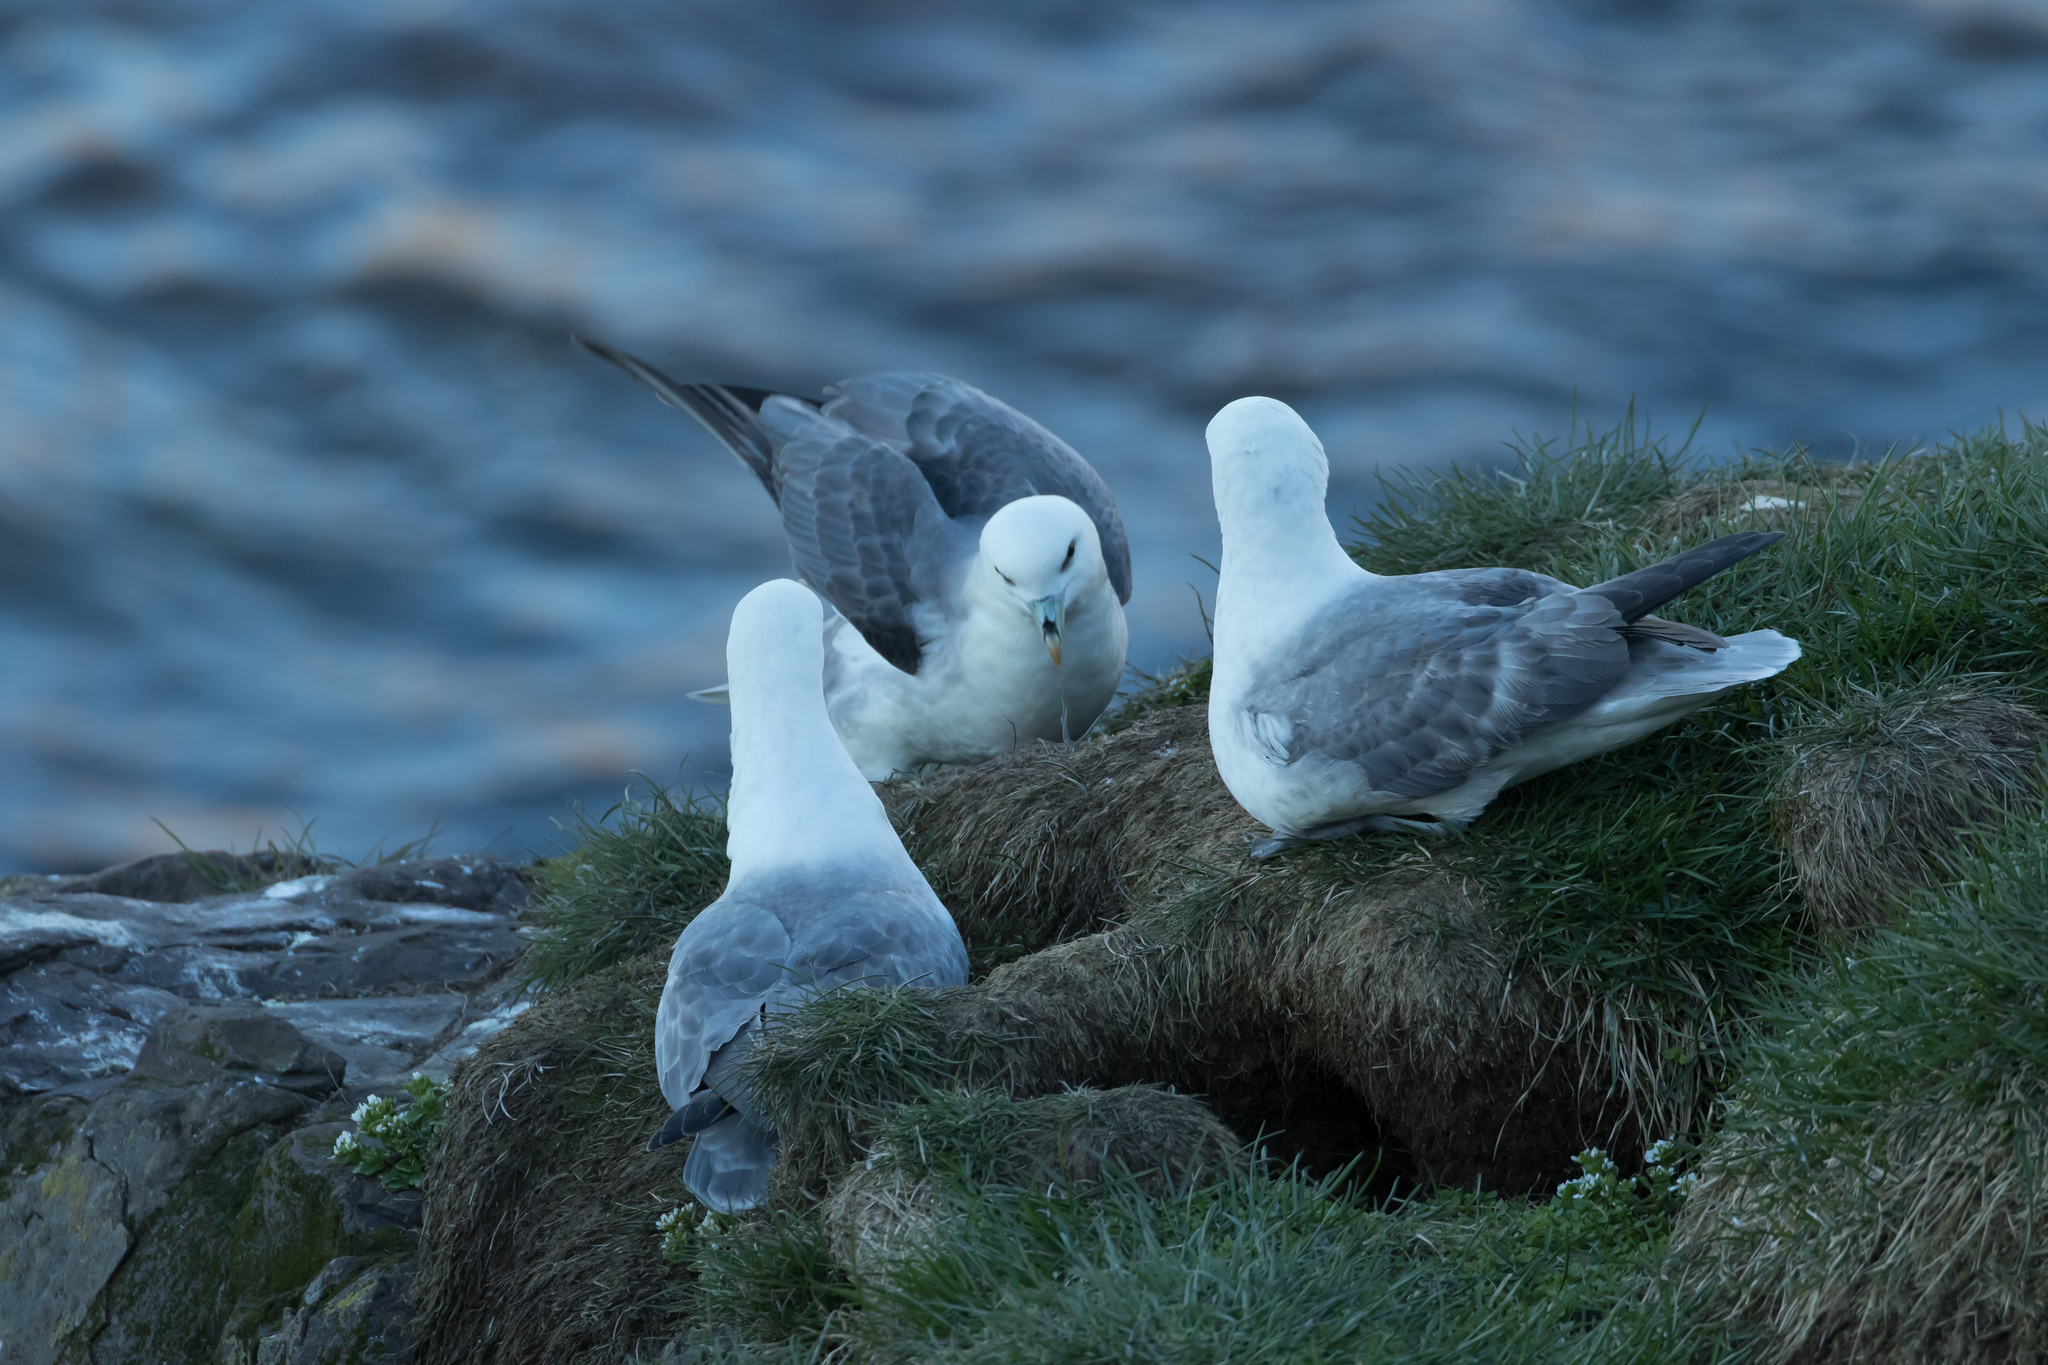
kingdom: Animalia
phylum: Chordata
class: Aves
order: Procellariiformes
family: Procellariidae
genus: Fulmarus
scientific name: Fulmarus glacialis
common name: Northern fulmar
